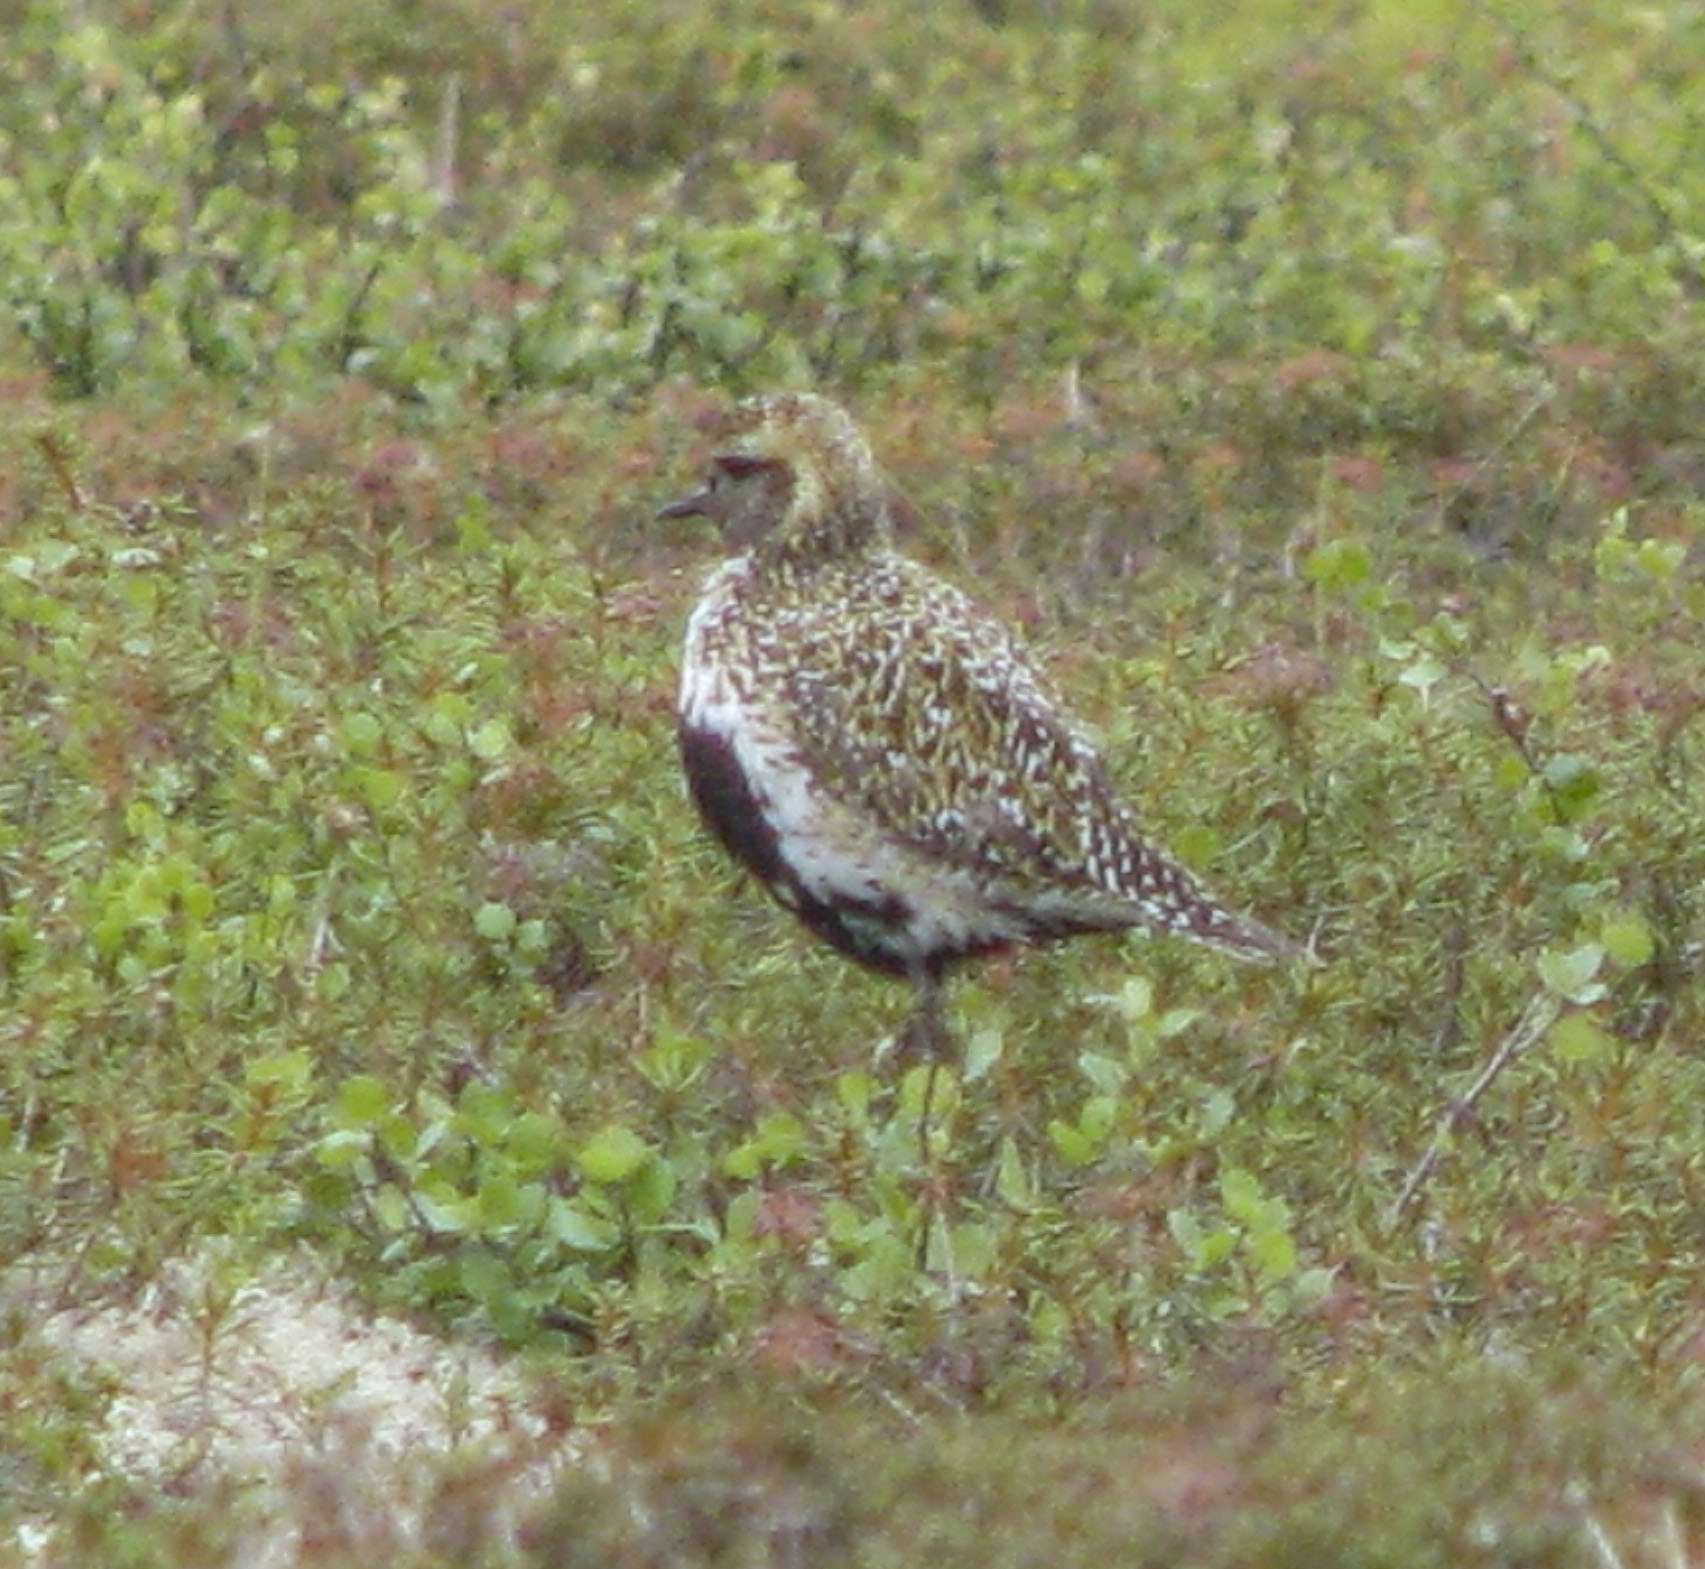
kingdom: Animalia
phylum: Chordata
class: Aves
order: Charadriiformes
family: Charadriidae
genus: Pluvialis
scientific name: Pluvialis apricaria
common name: European golden plover
